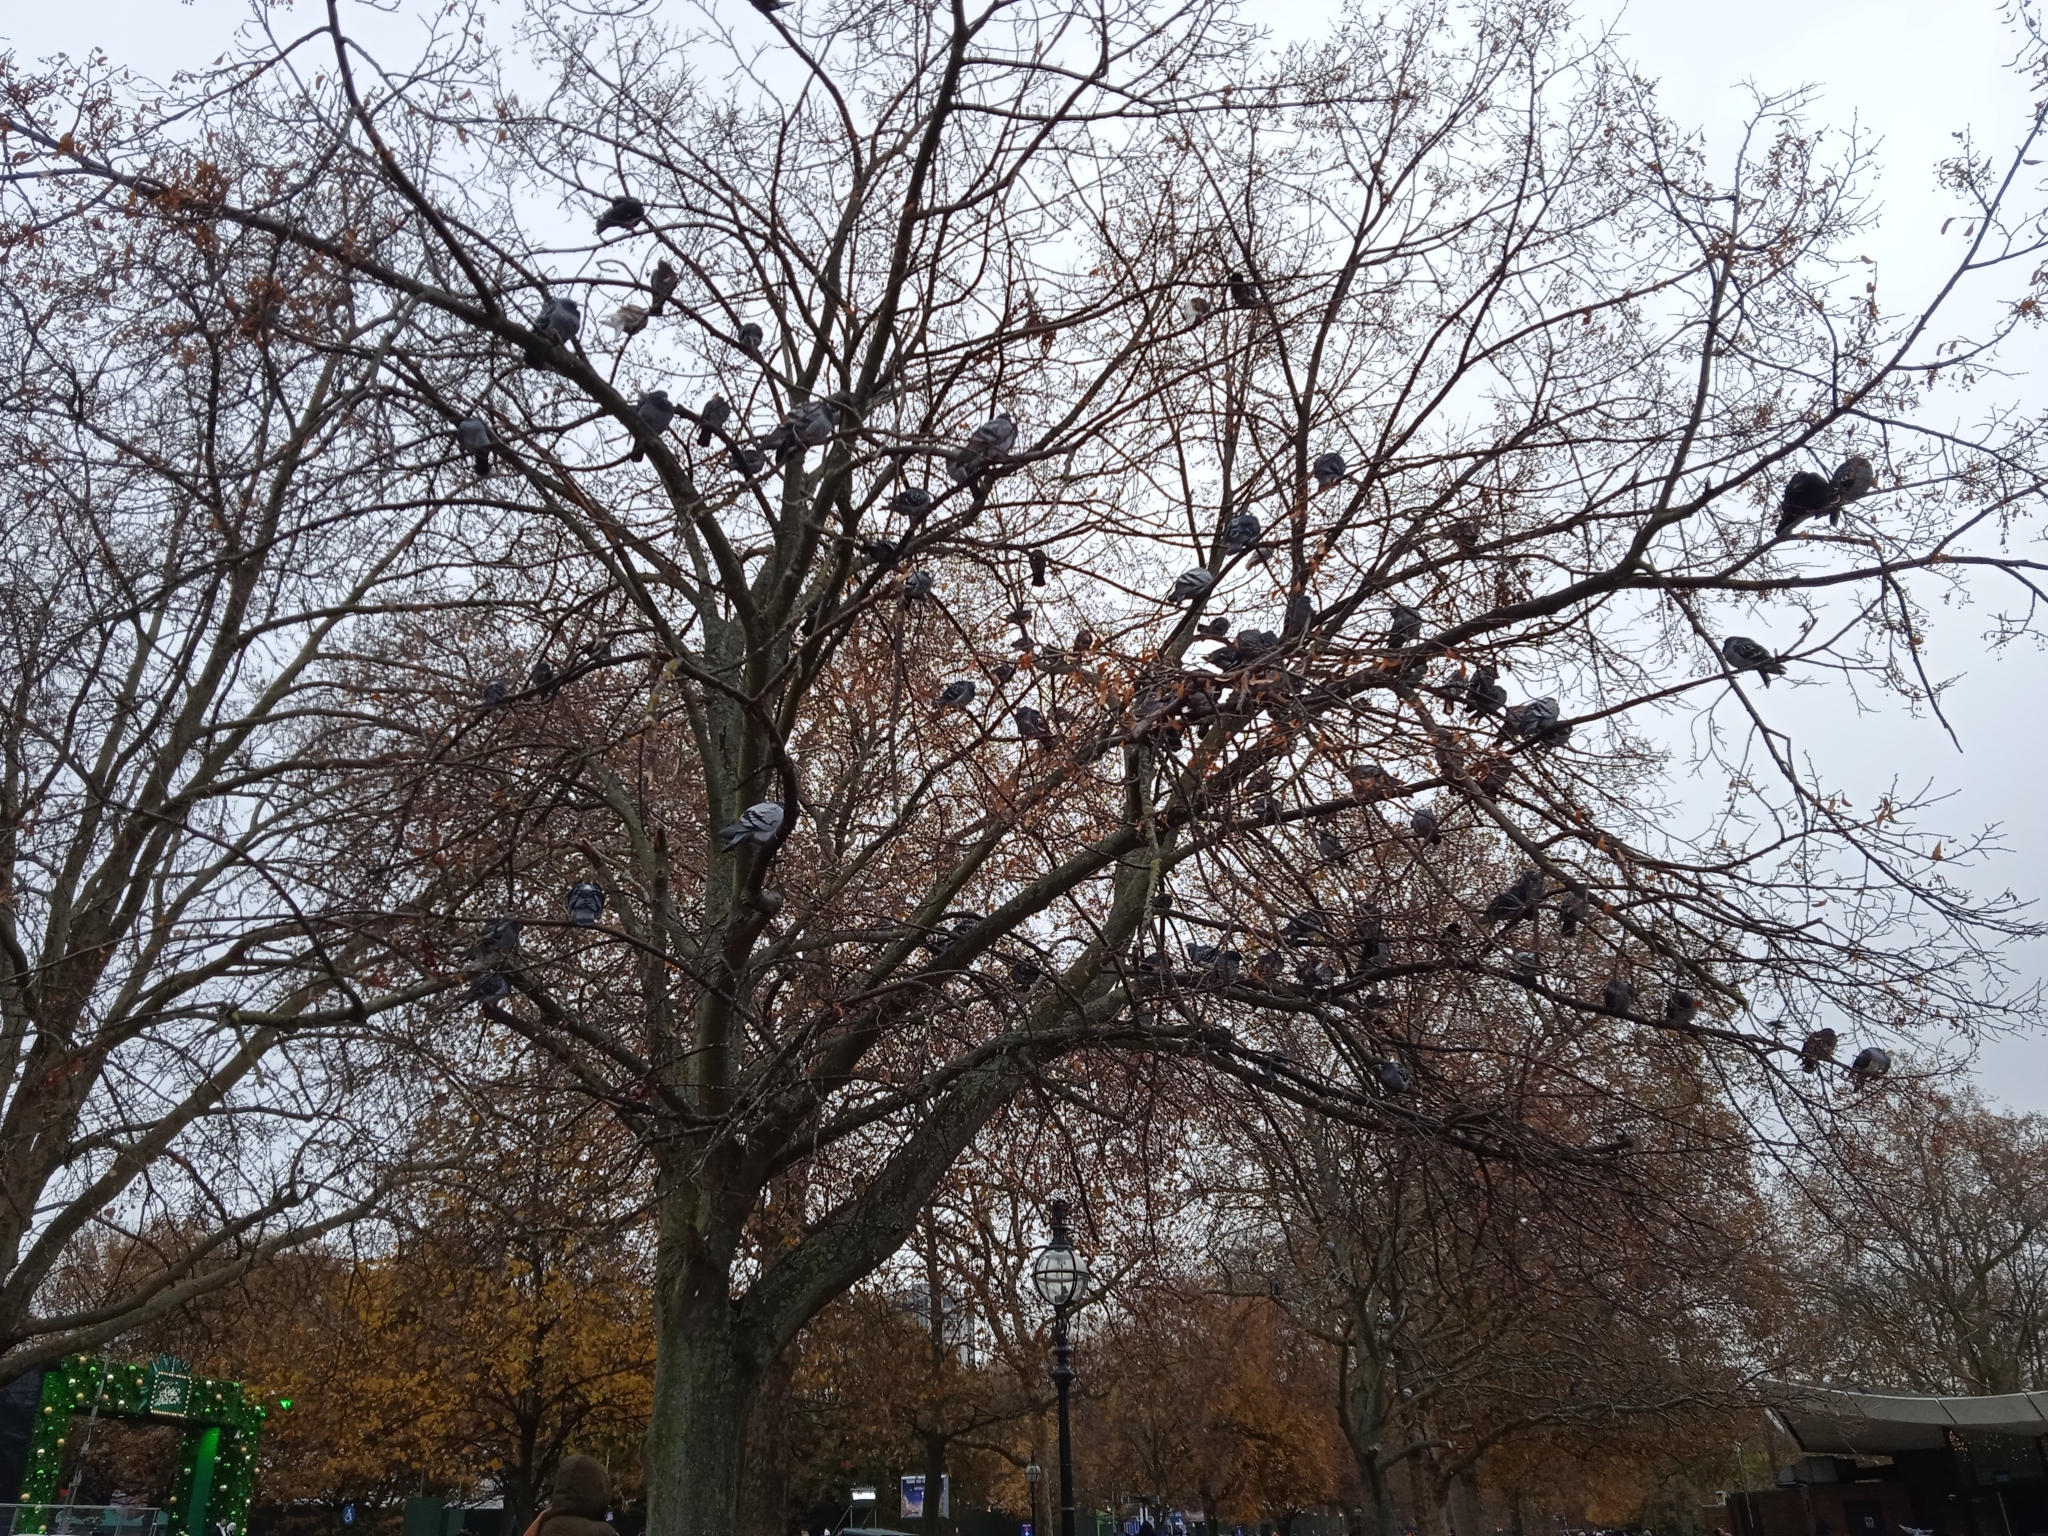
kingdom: Animalia
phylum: Chordata
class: Aves
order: Columbiformes
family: Columbidae
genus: Columba
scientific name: Columba livia
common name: Rock pigeon
